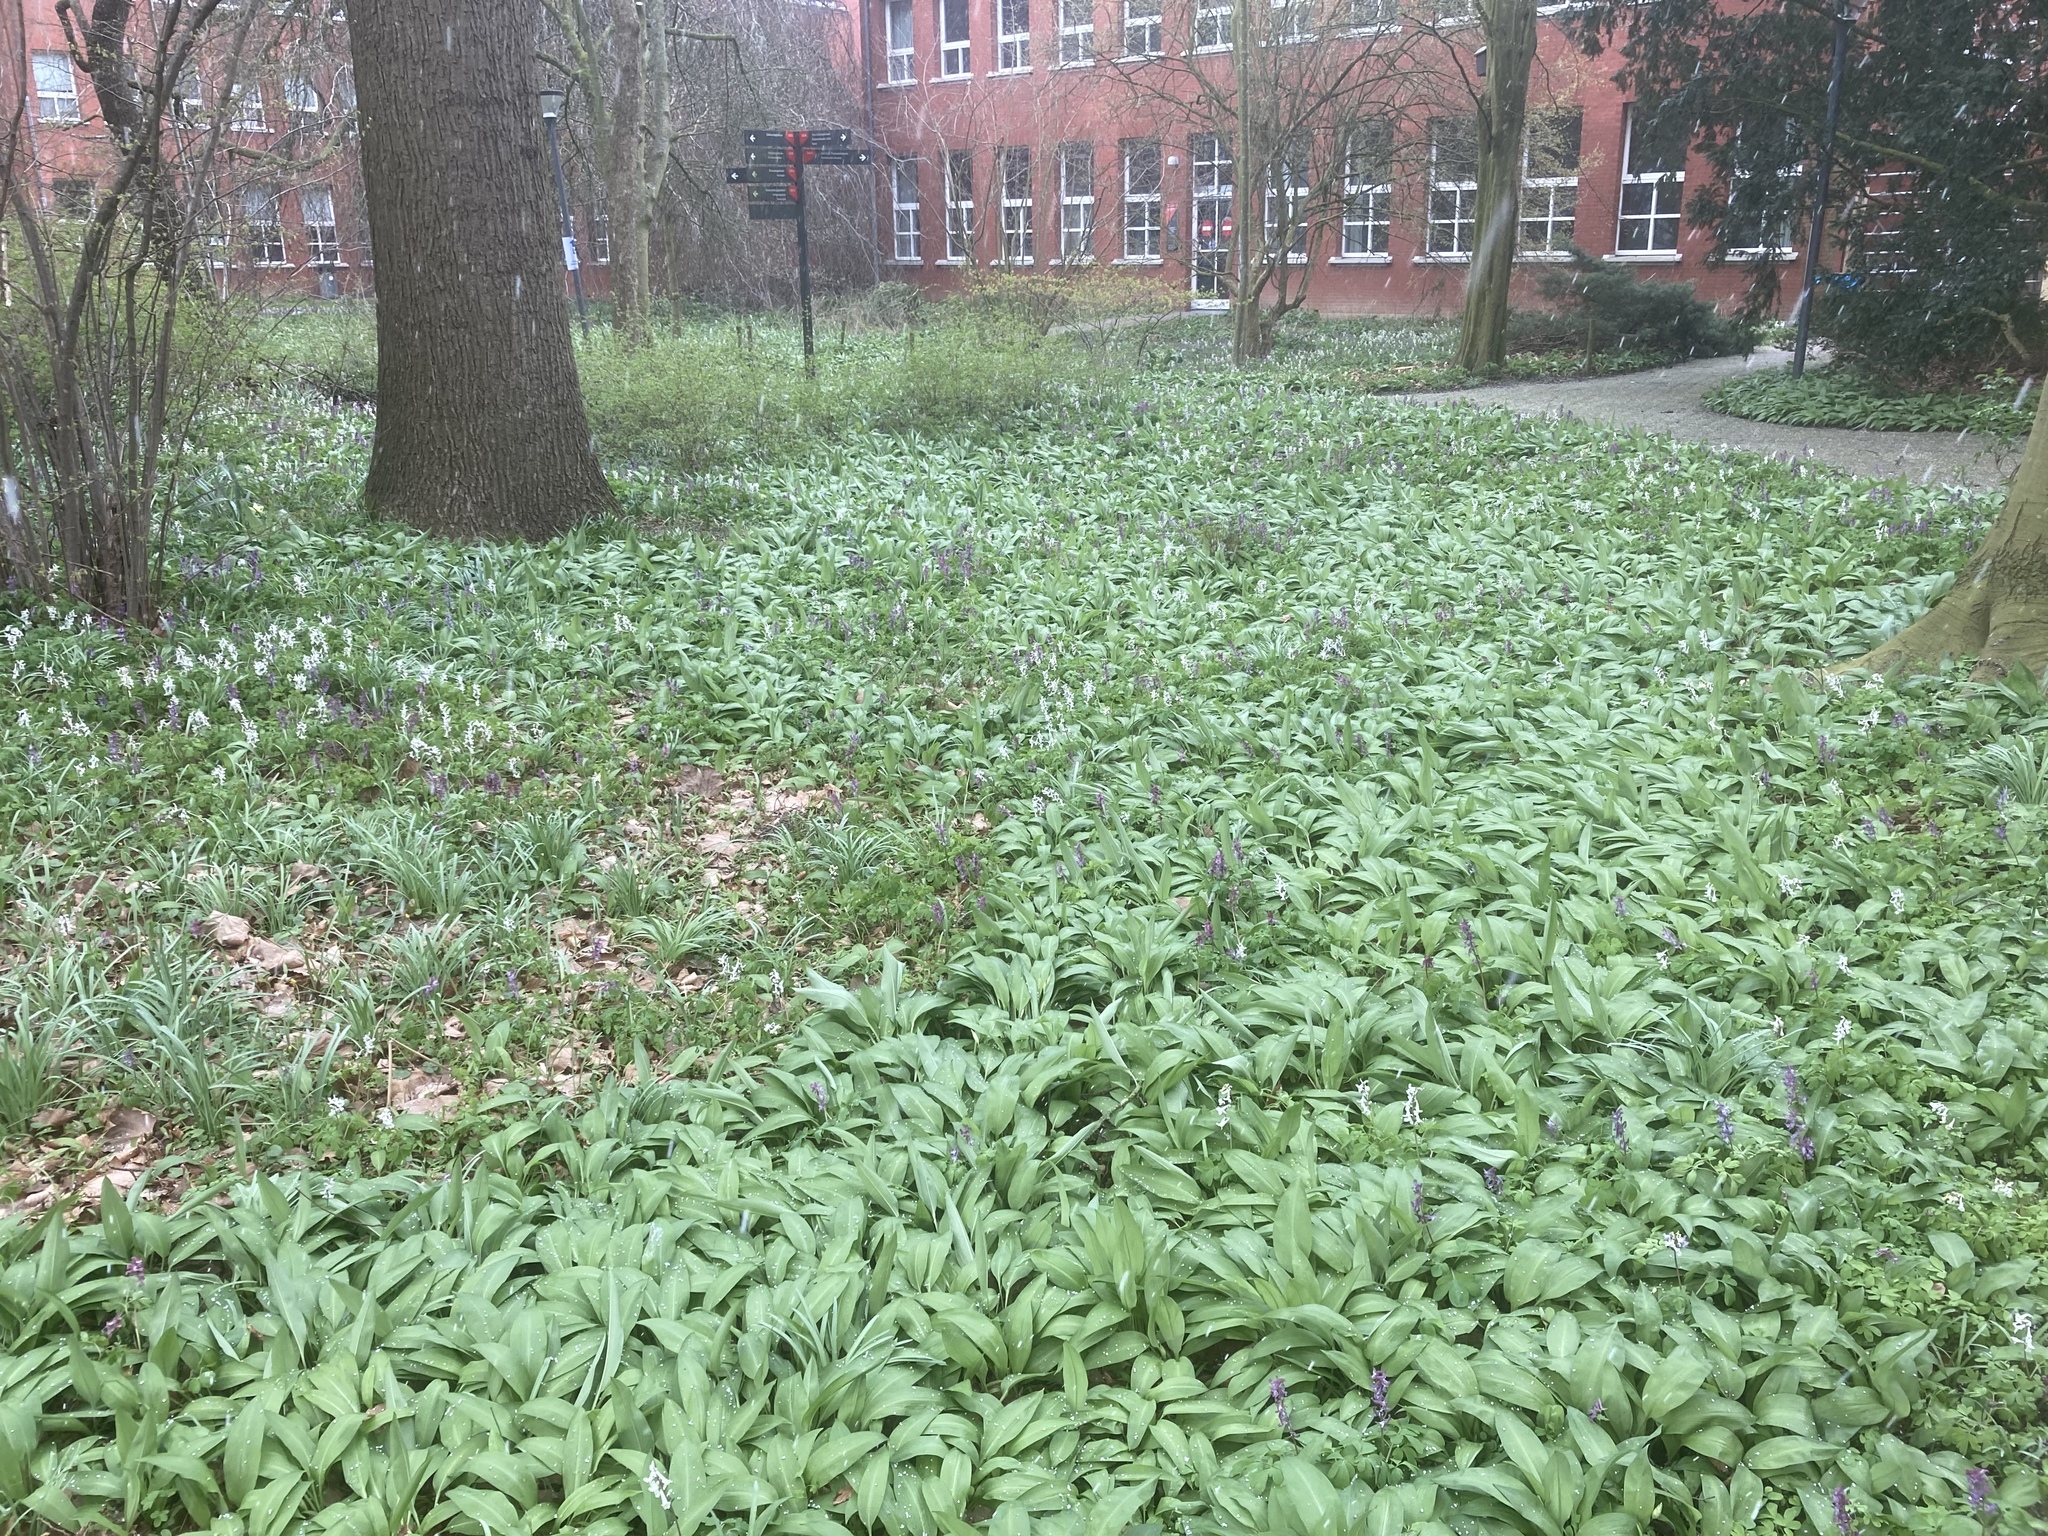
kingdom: Plantae
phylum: Tracheophyta
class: Liliopsida
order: Asparagales
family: Amaryllidaceae
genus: Allium
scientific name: Allium ursinum
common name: Ramsons
